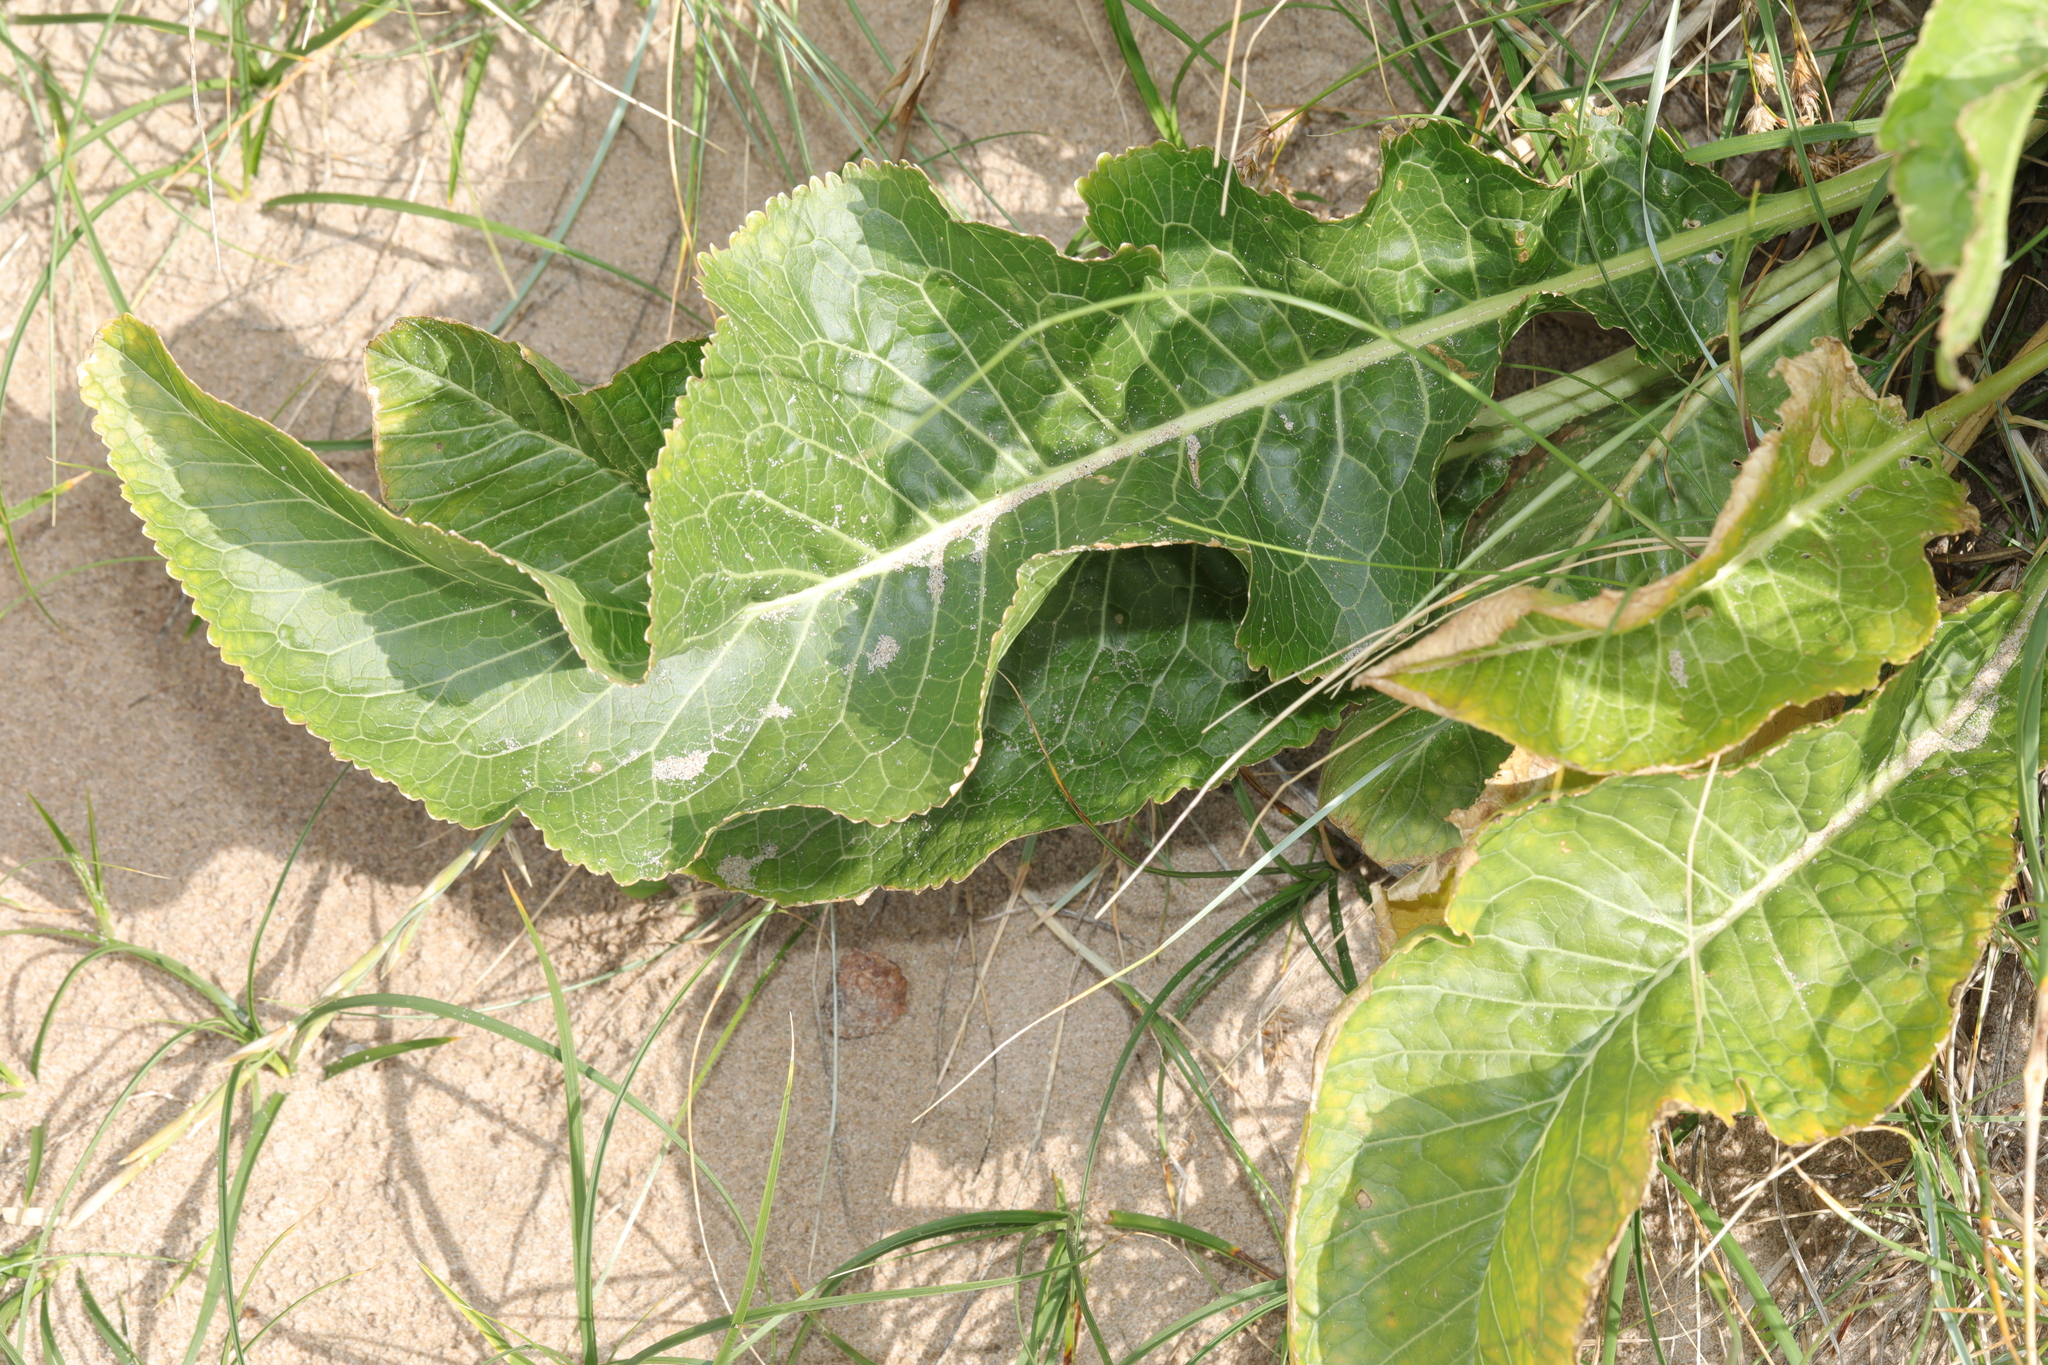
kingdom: Plantae
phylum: Tracheophyta
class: Magnoliopsida
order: Brassicales
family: Brassicaceae
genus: Armoracia
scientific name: Armoracia rusticana
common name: Horseradish
